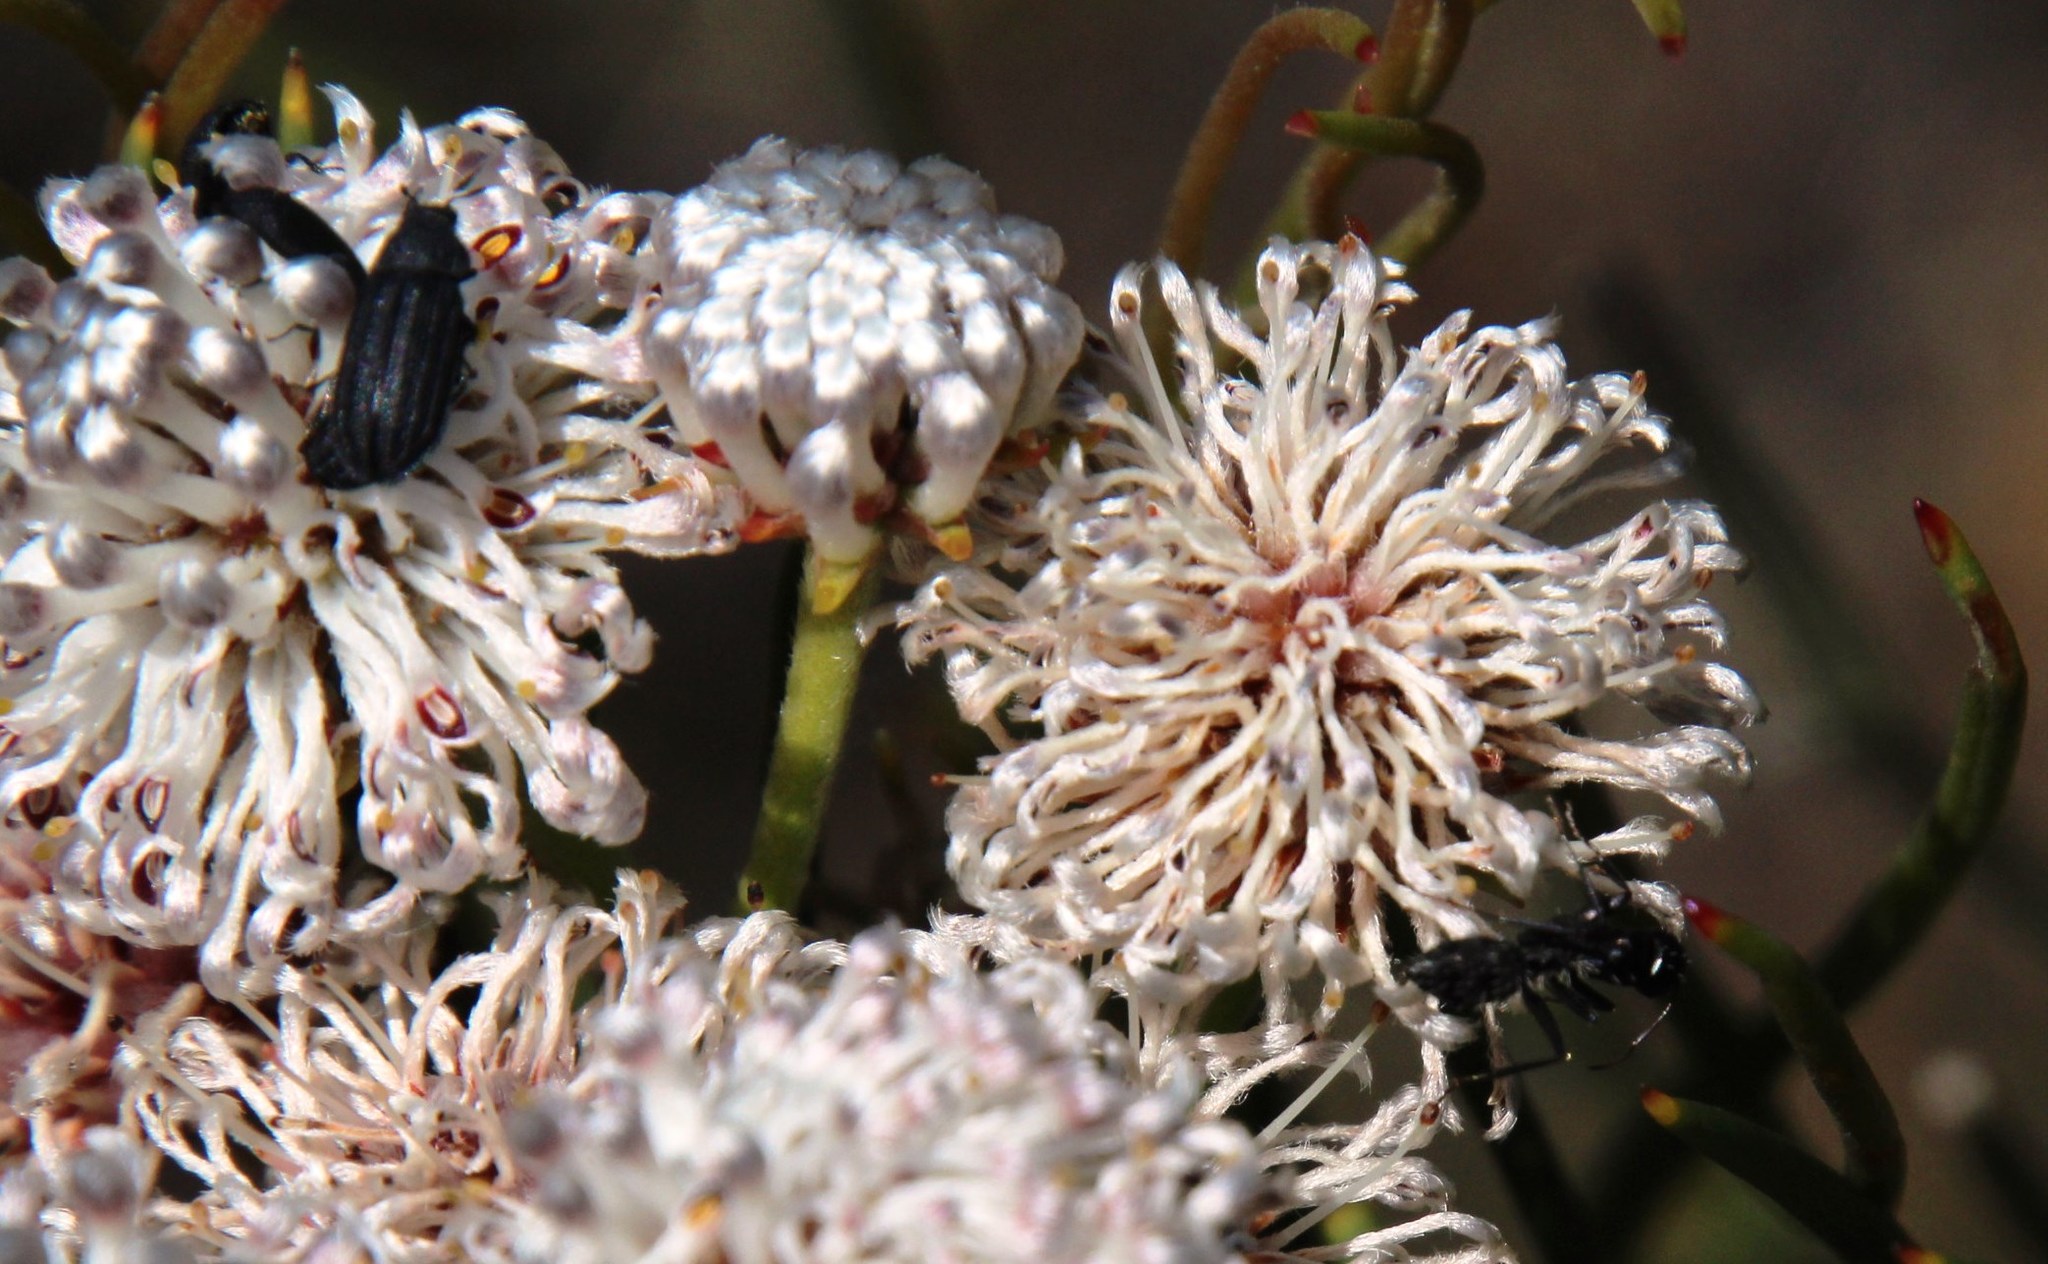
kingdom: Animalia
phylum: Arthropoda
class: Insecta
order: Hymenoptera
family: Formicidae
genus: Camponotus
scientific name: Camponotus niveosetosus
